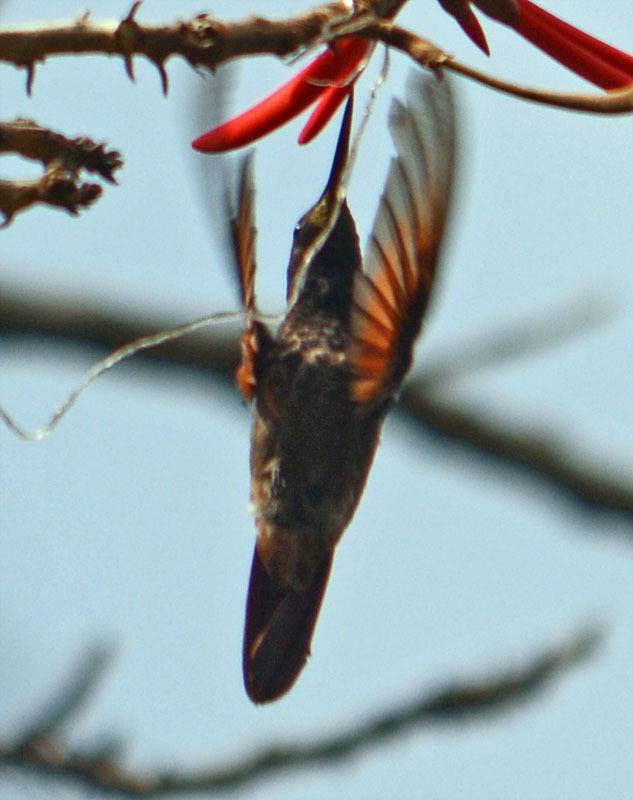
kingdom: Animalia
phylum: Chordata
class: Aves
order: Apodiformes
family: Trochilidae
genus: Saucerottia
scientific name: Saucerottia beryllina
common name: Berylline hummingbird
